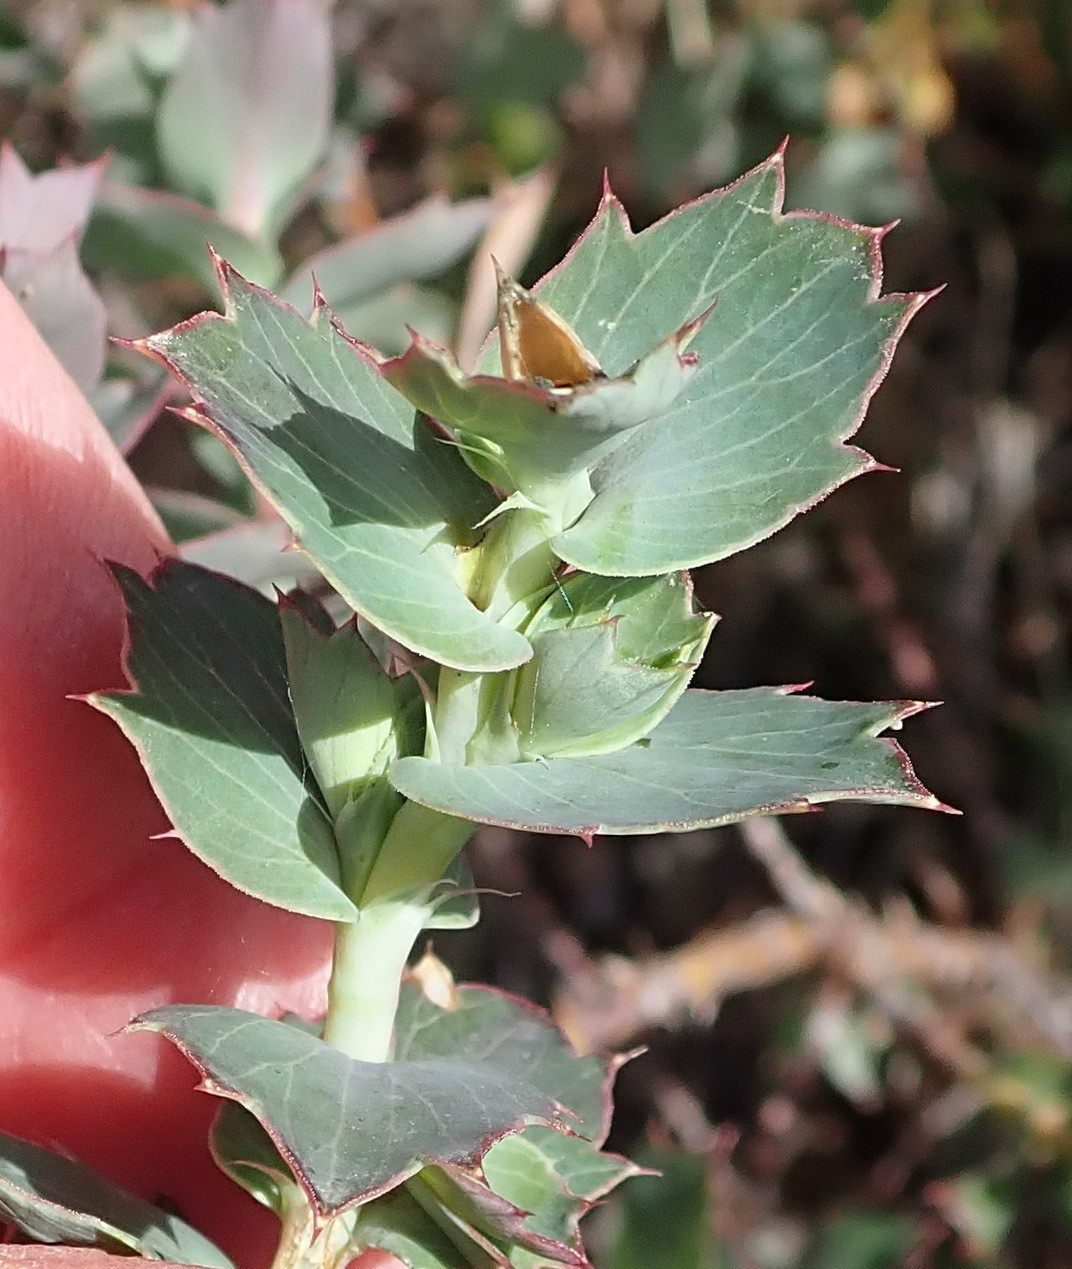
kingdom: Plantae
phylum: Tracheophyta
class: Magnoliopsida
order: Rosales
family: Rosaceae
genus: Cliffortia
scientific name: Cliffortia ilicifolia
